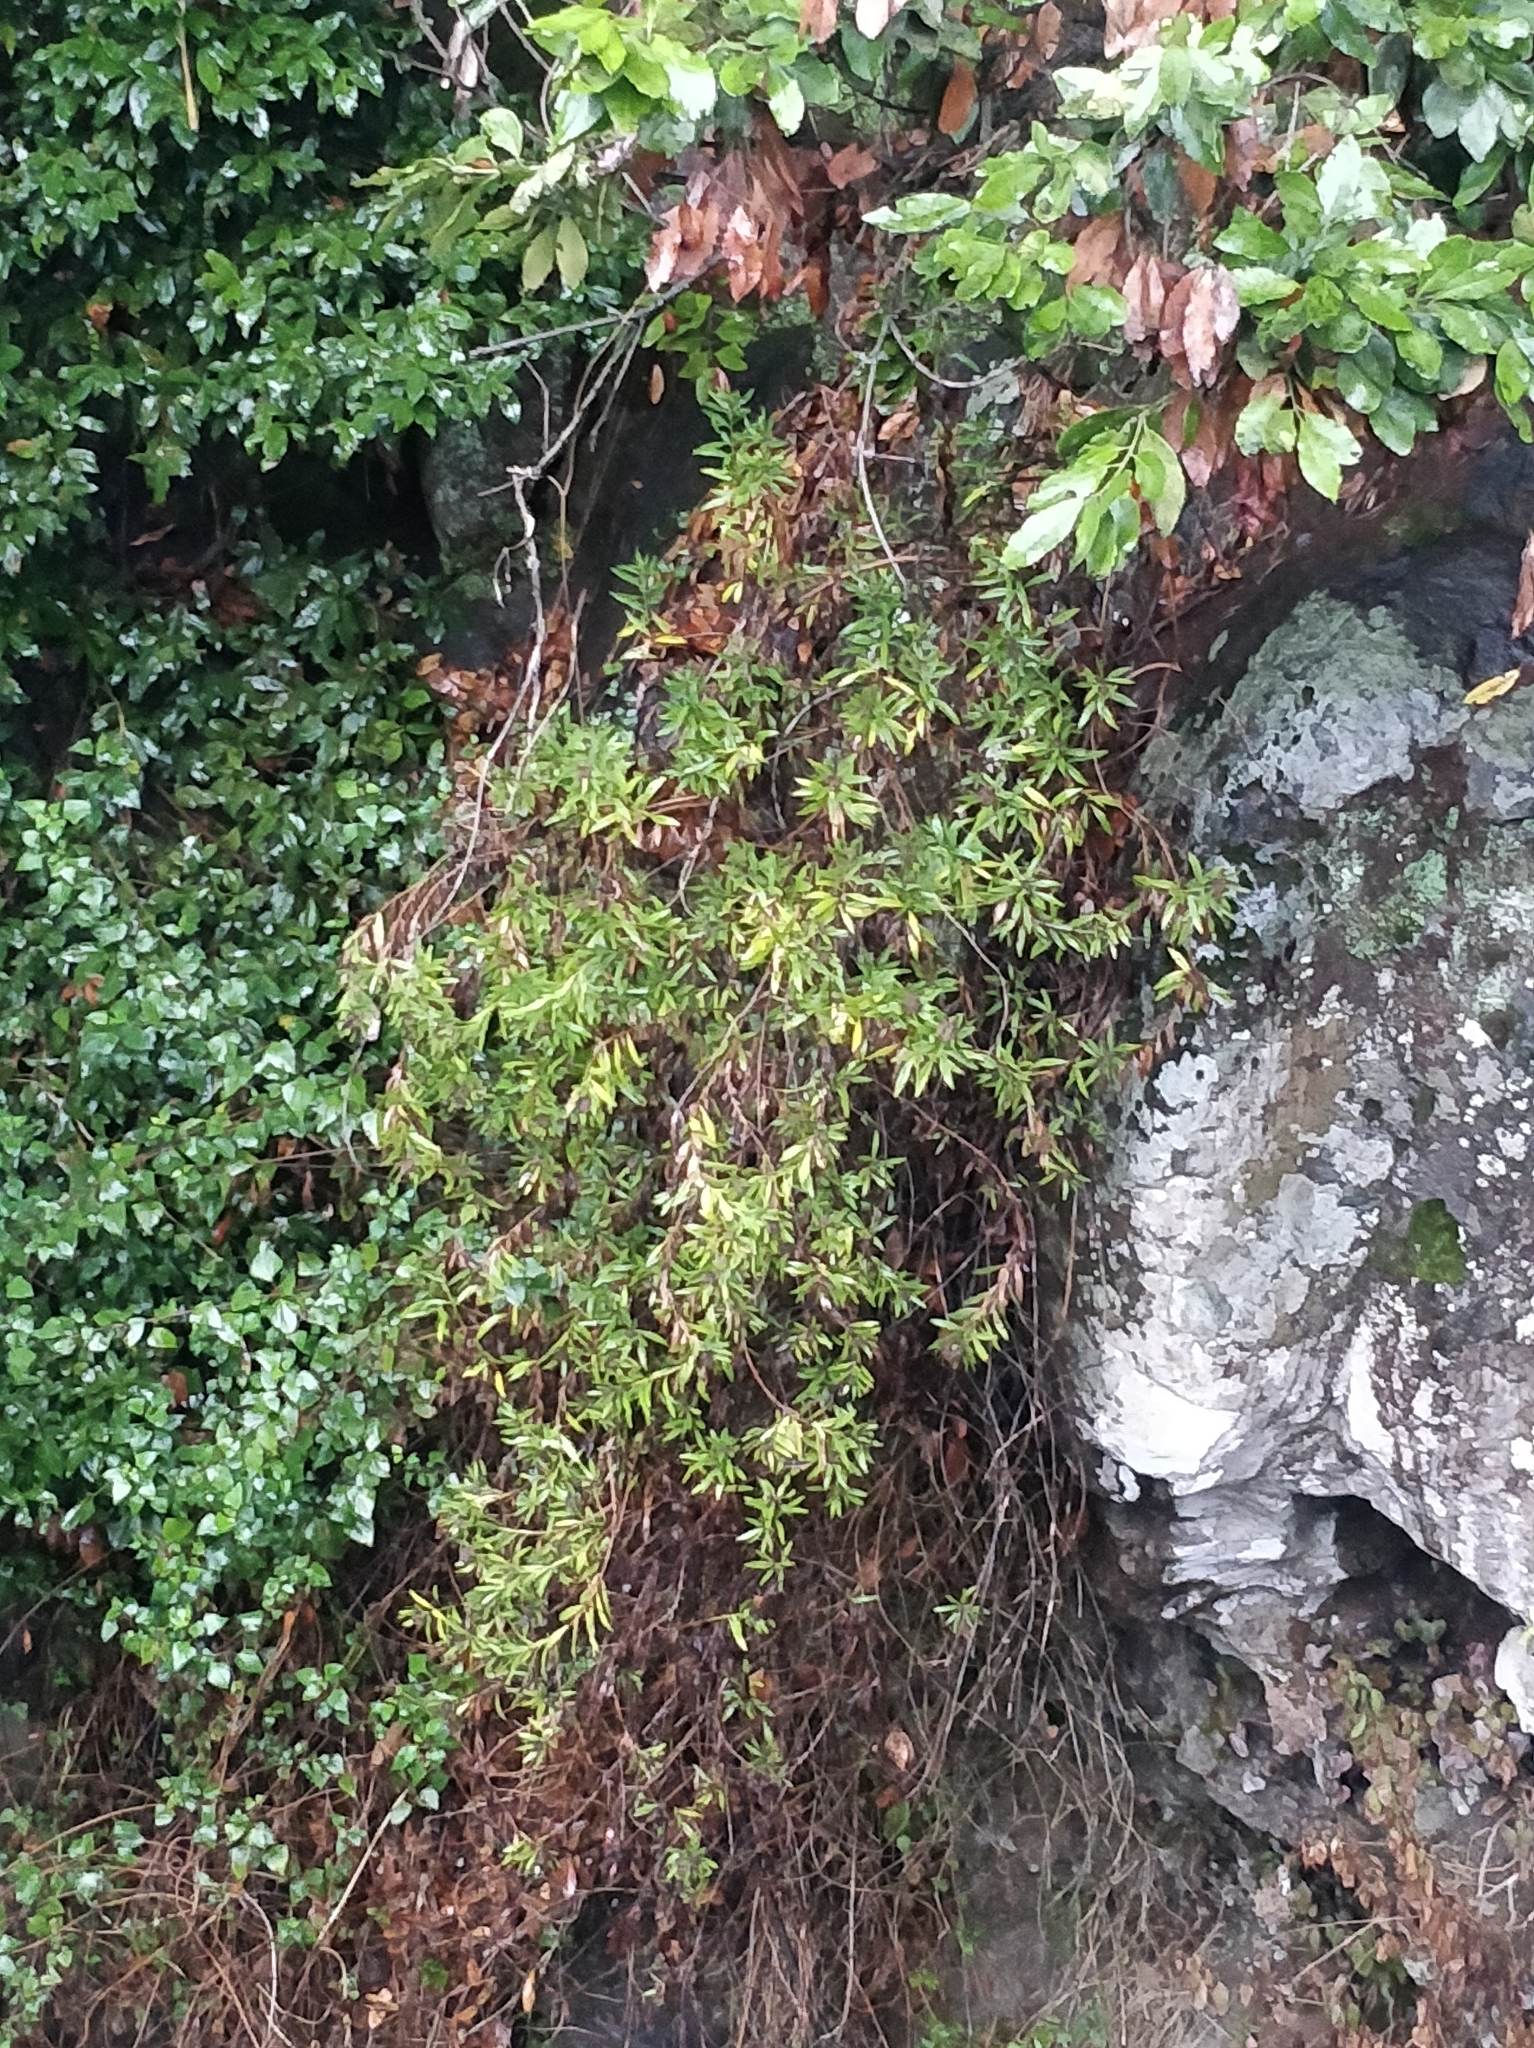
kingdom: Plantae
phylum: Tracheophyta
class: Magnoliopsida
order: Lamiales
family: Plantaginaceae
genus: Globularia
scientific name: Globularia salicina
